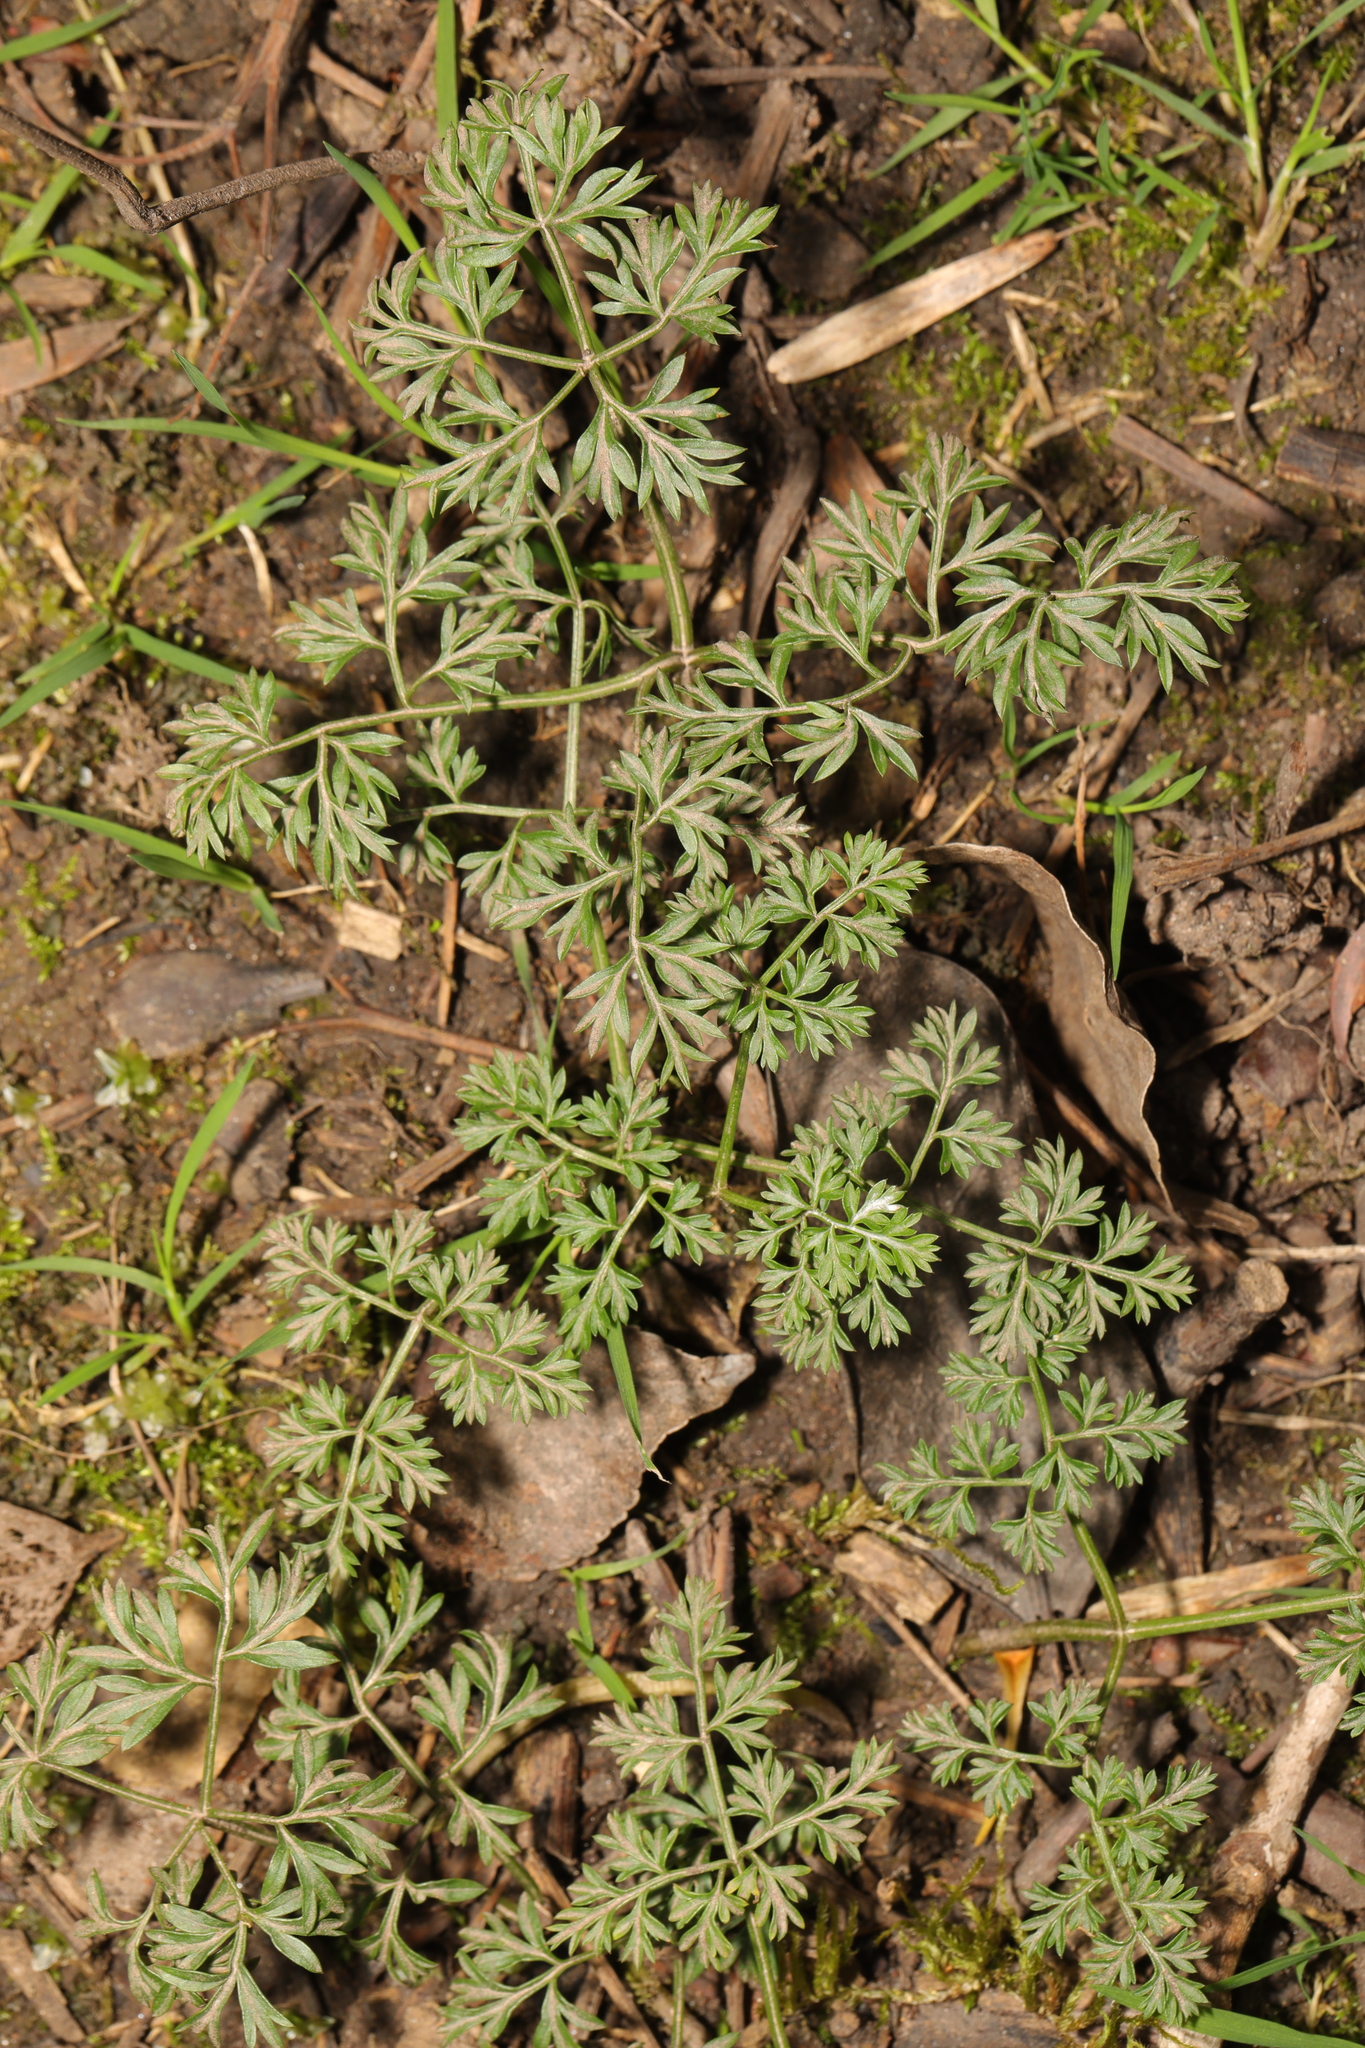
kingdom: Plantae
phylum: Tracheophyta
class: Magnoliopsida
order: Apiales
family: Apiaceae
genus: Conopodium
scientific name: Conopodium majus
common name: Pignut
